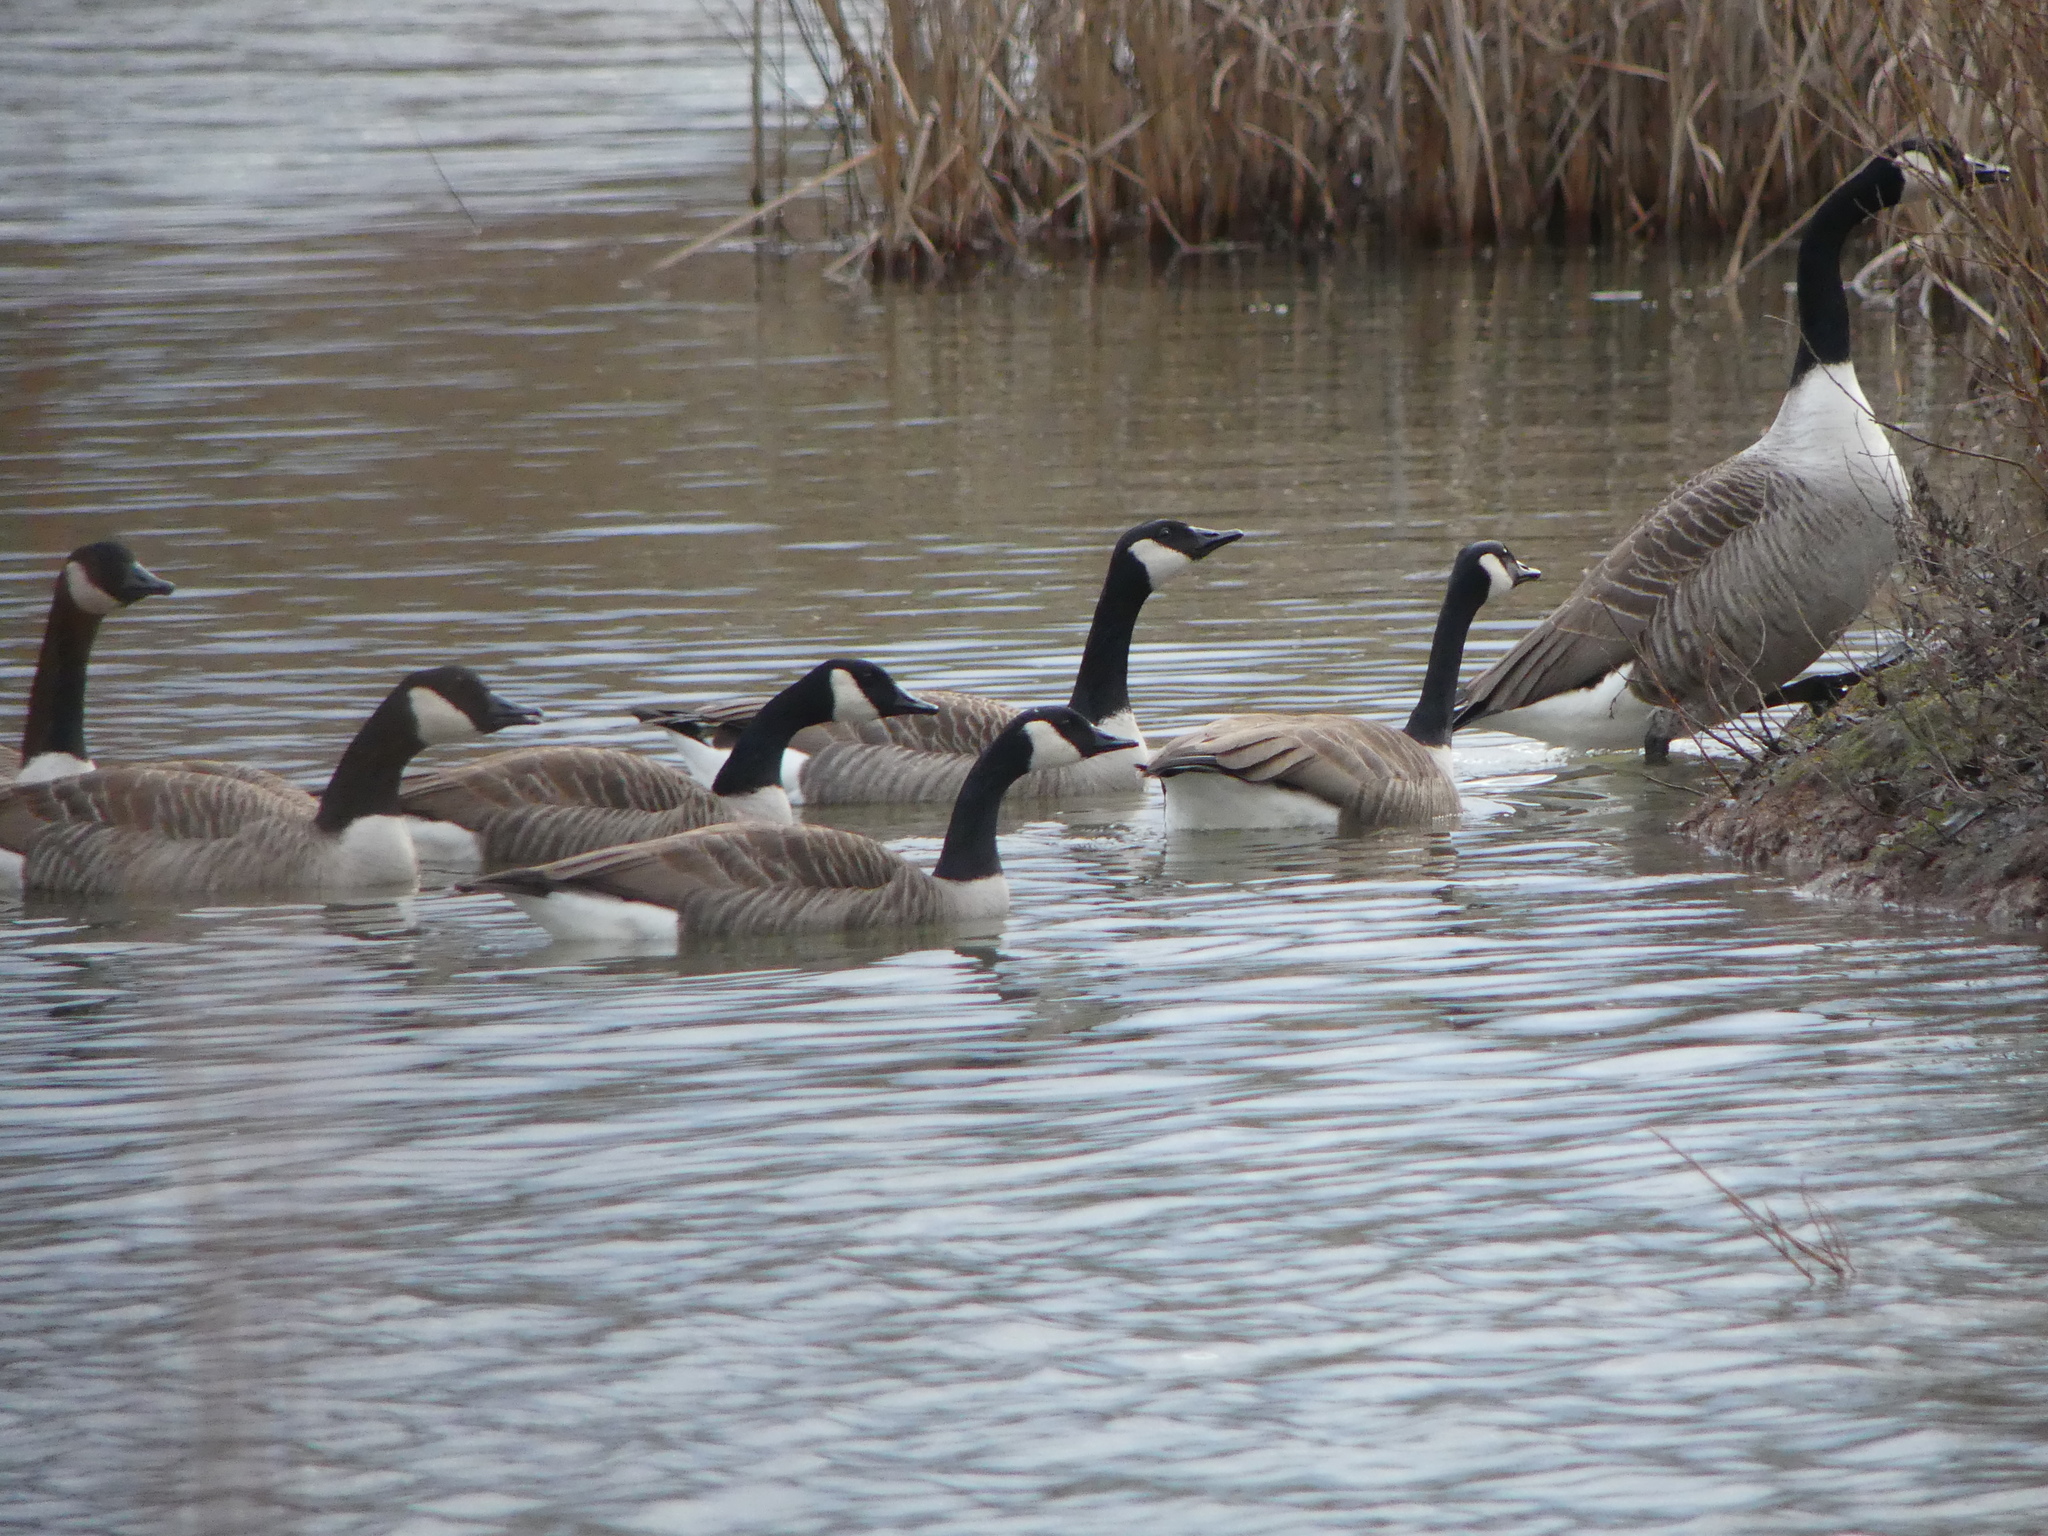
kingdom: Animalia
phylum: Chordata
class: Aves
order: Anseriformes
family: Anatidae
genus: Branta
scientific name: Branta canadensis
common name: Canada goose
